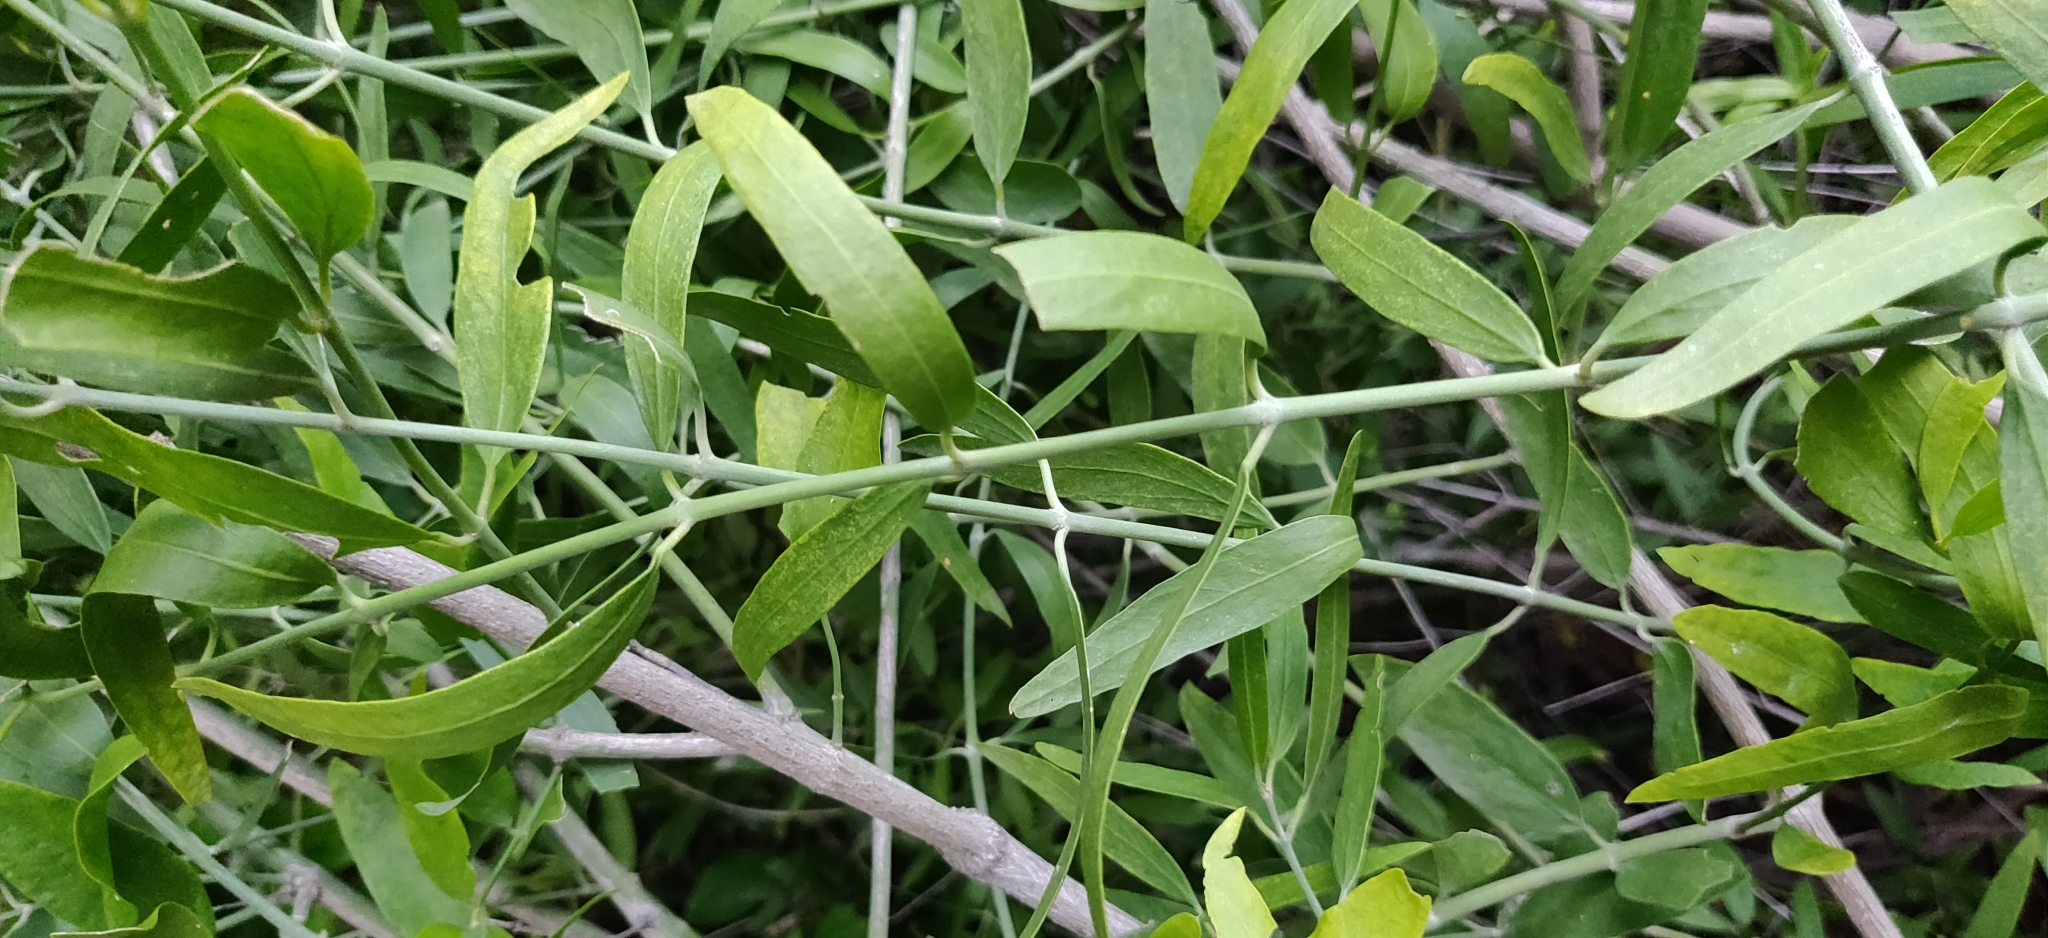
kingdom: Plantae
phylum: Tracheophyta
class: Magnoliopsida
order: Brassicales
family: Salvadoraceae
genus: Salvadora
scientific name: Salvadora oleoides
